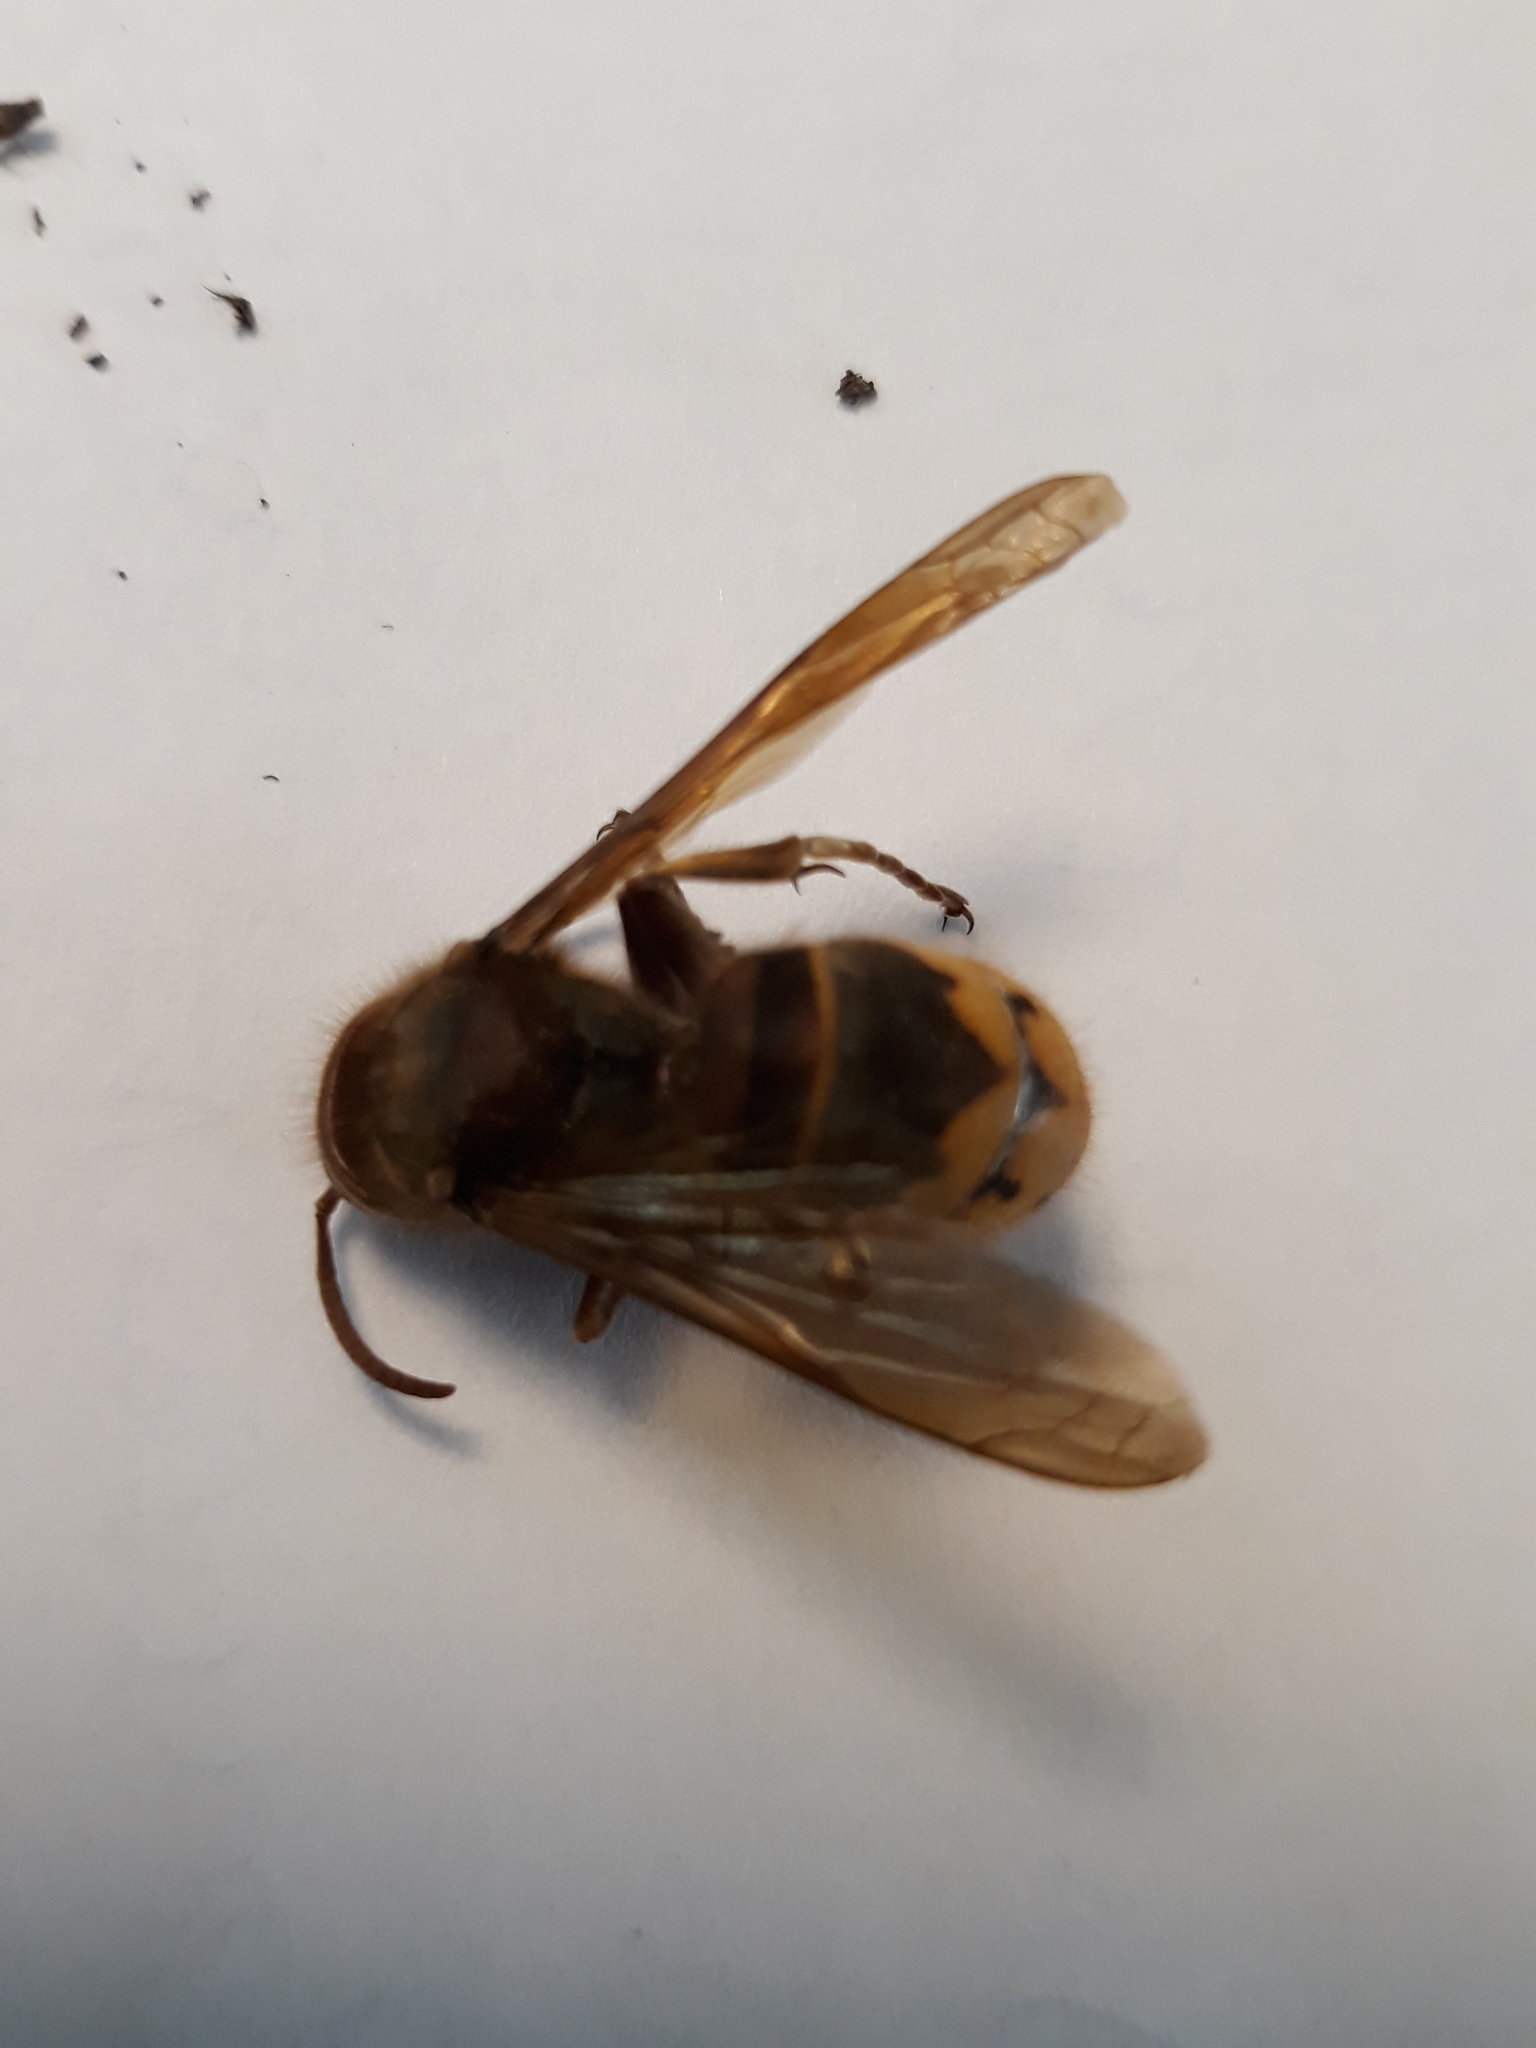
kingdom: Animalia
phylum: Arthropoda
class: Insecta
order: Hymenoptera
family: Vespidae
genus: Vespa
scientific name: Vespa crabro
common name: Hornet
